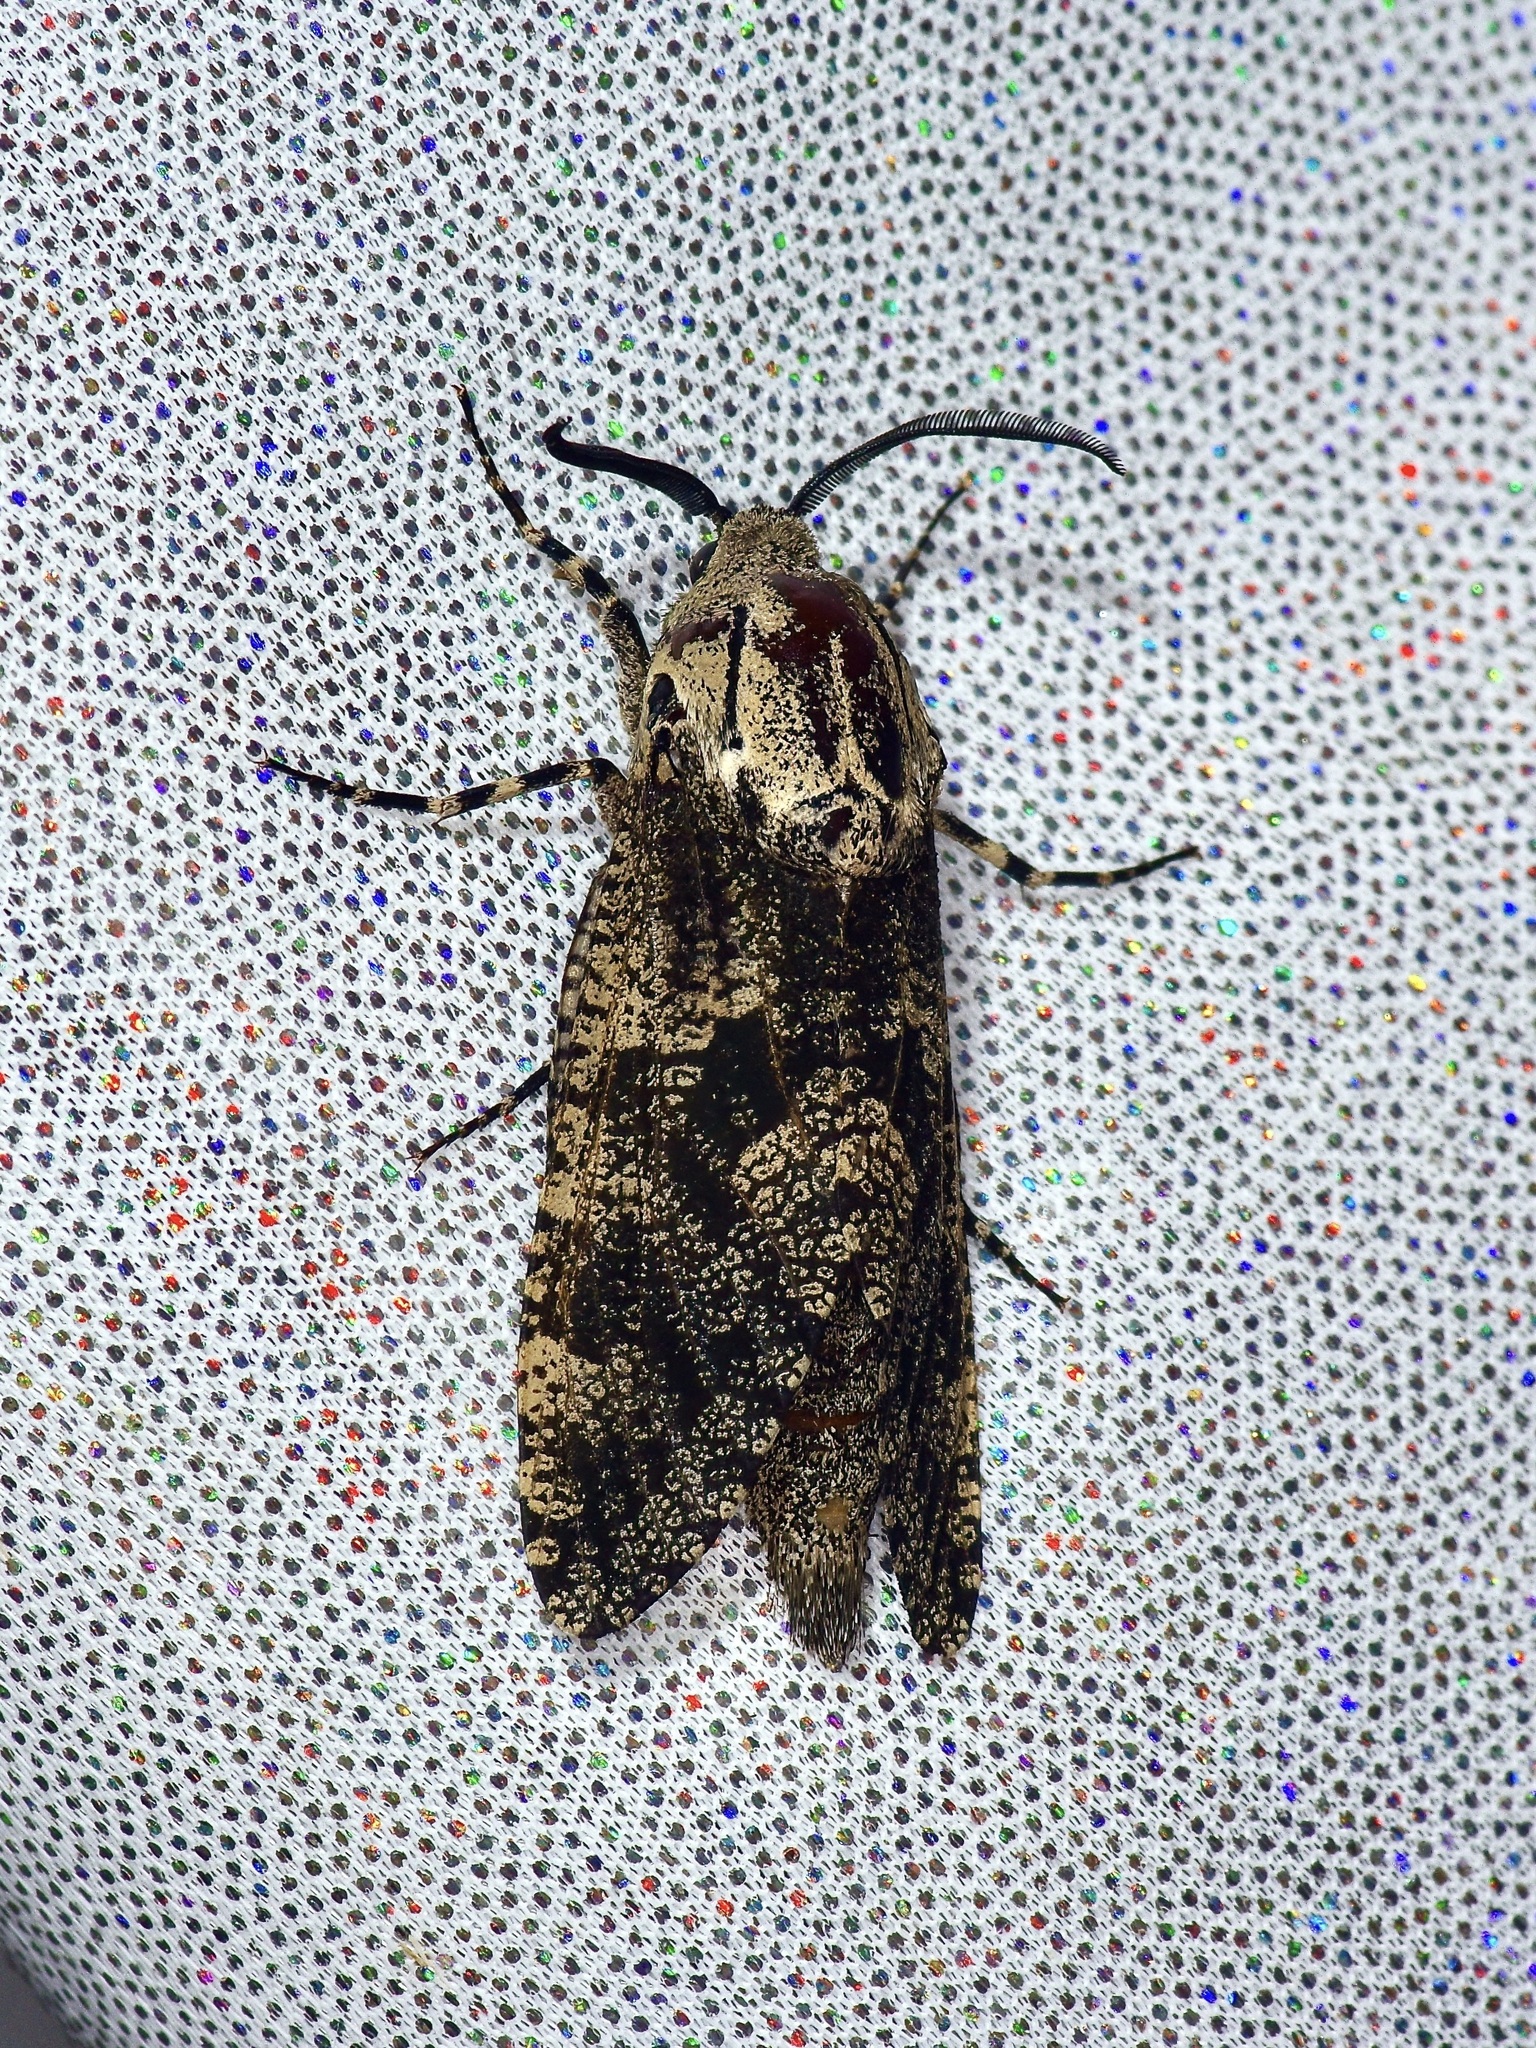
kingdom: Animalia
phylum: Arthropoda
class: Insecta
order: Lepidoptera
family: Cossidae
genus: Prionoxystus
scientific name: Prionoxystus robiniae
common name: Carpenterworm
